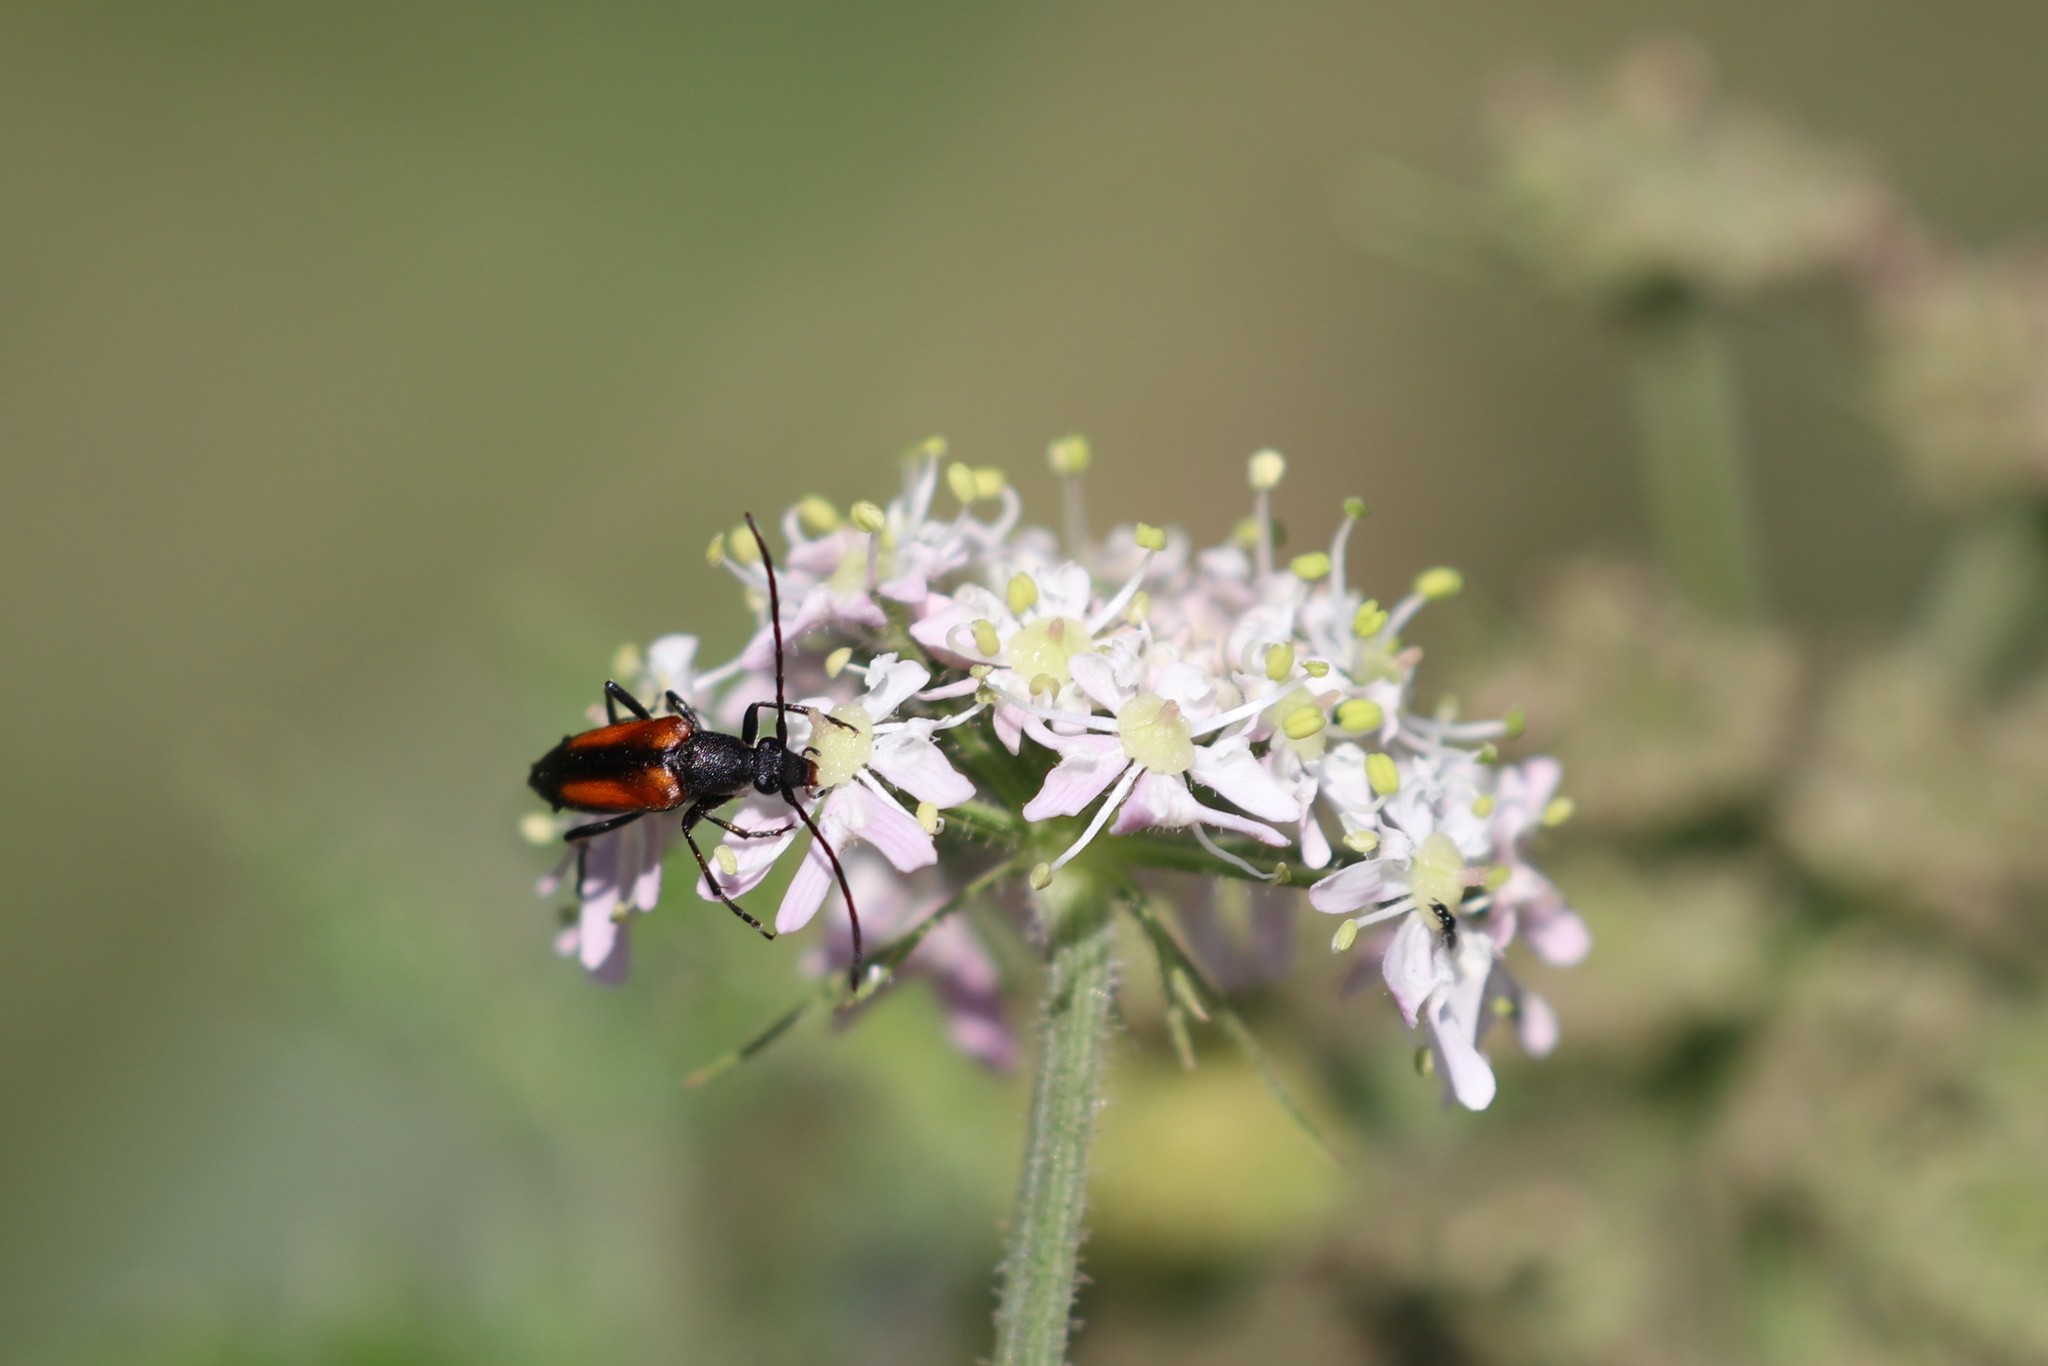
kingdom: Animalia
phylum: Arthropoda
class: Insecta
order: Coleoptera
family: Cerambycidae
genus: Stenurella
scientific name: Stenurella melanura
